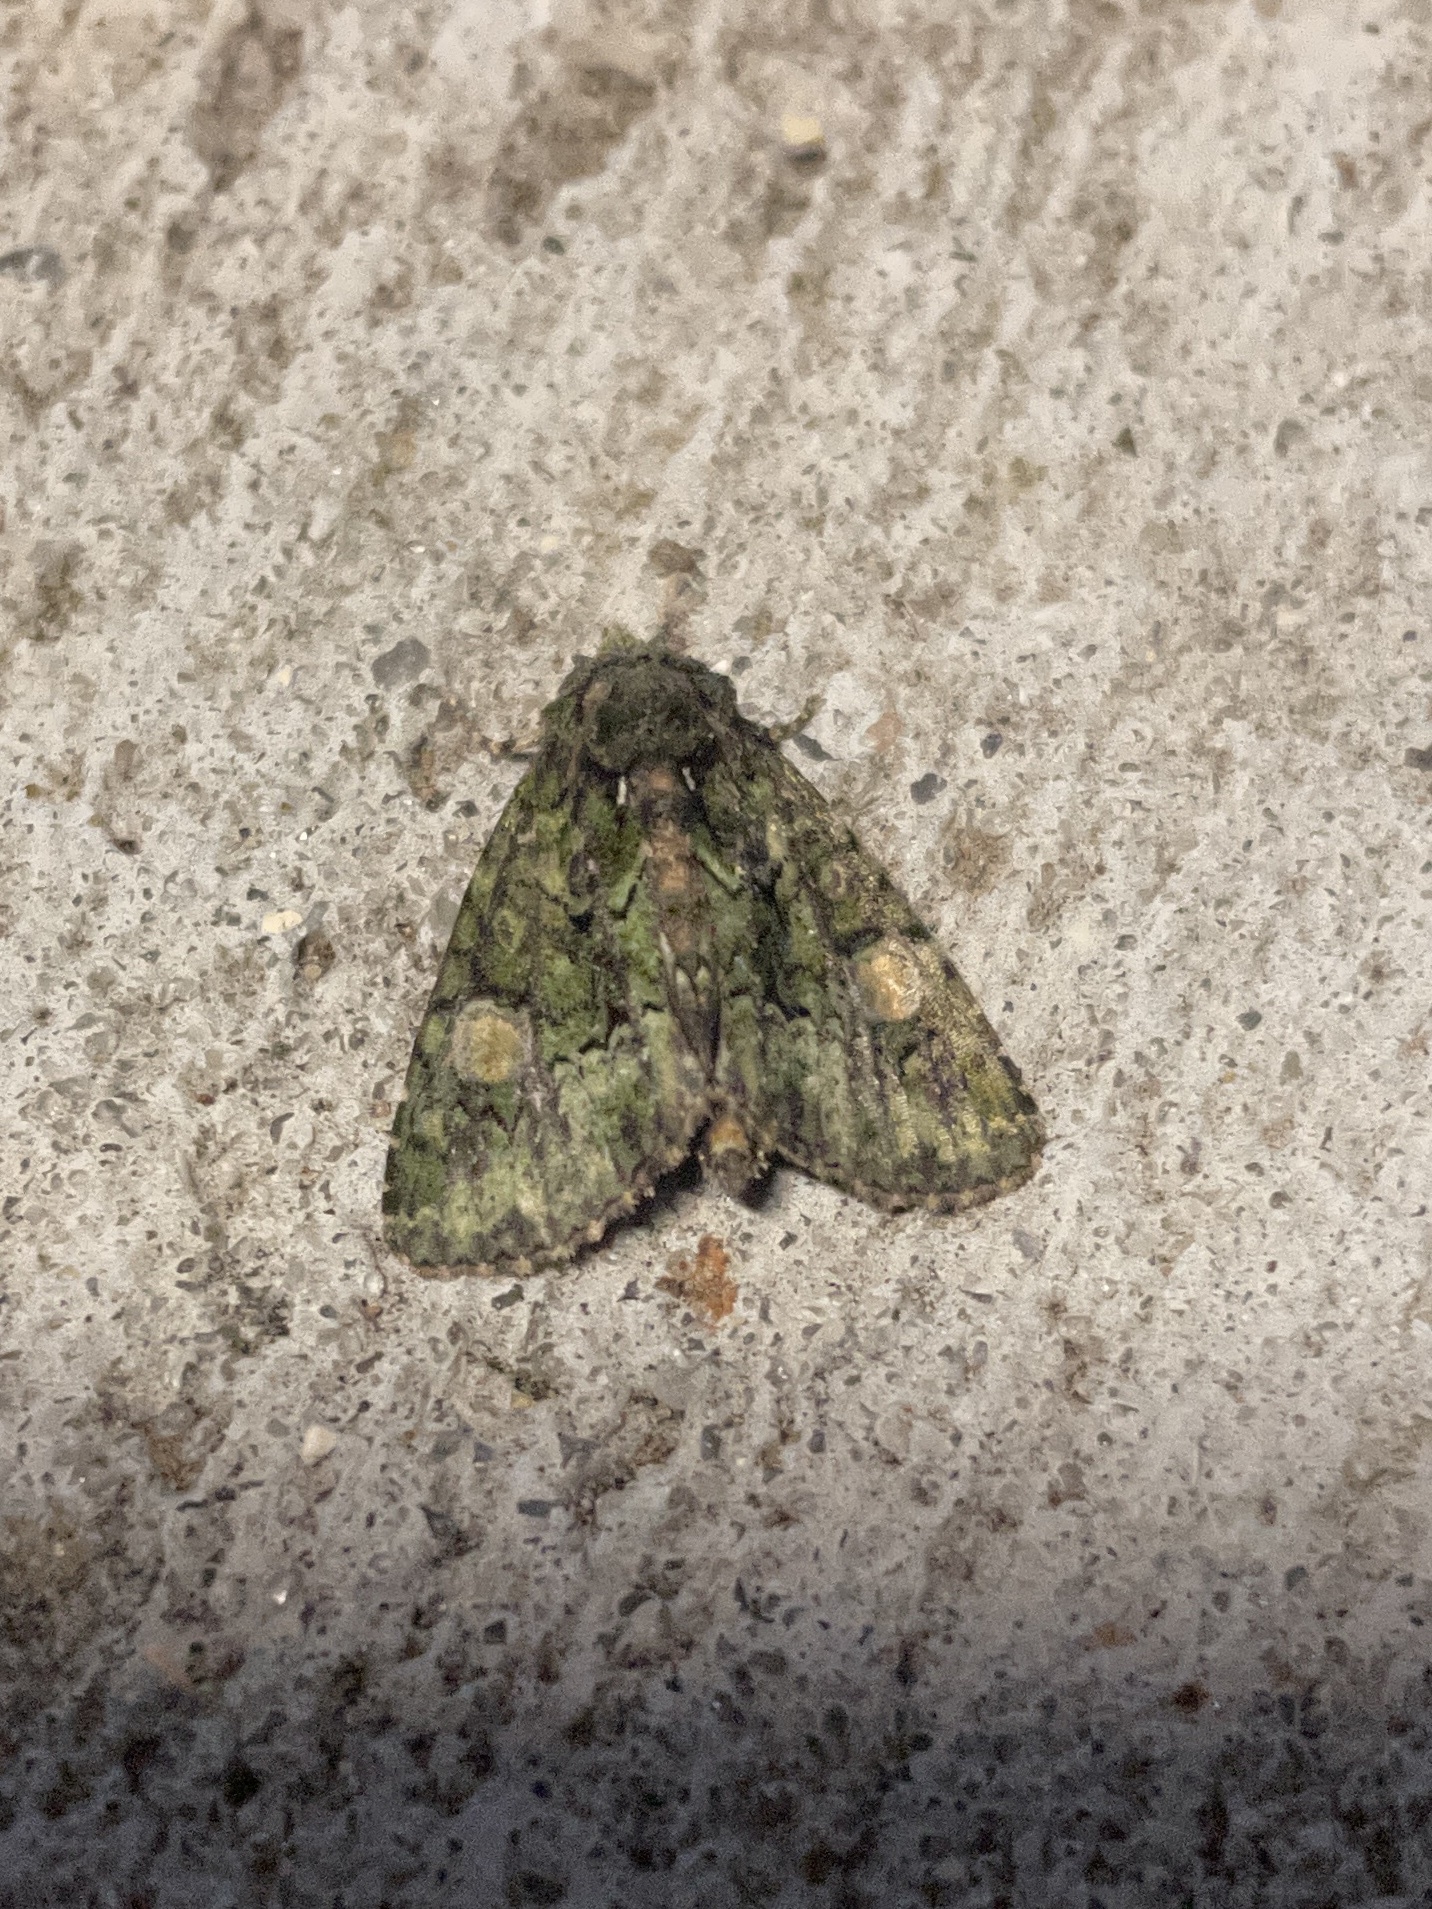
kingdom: Animalia
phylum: Arthropoda
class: Insecta
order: Lepidoptera
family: Noctuidae
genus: Phosphila
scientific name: Phosphila miselioides
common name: Spotted phosphila moth
